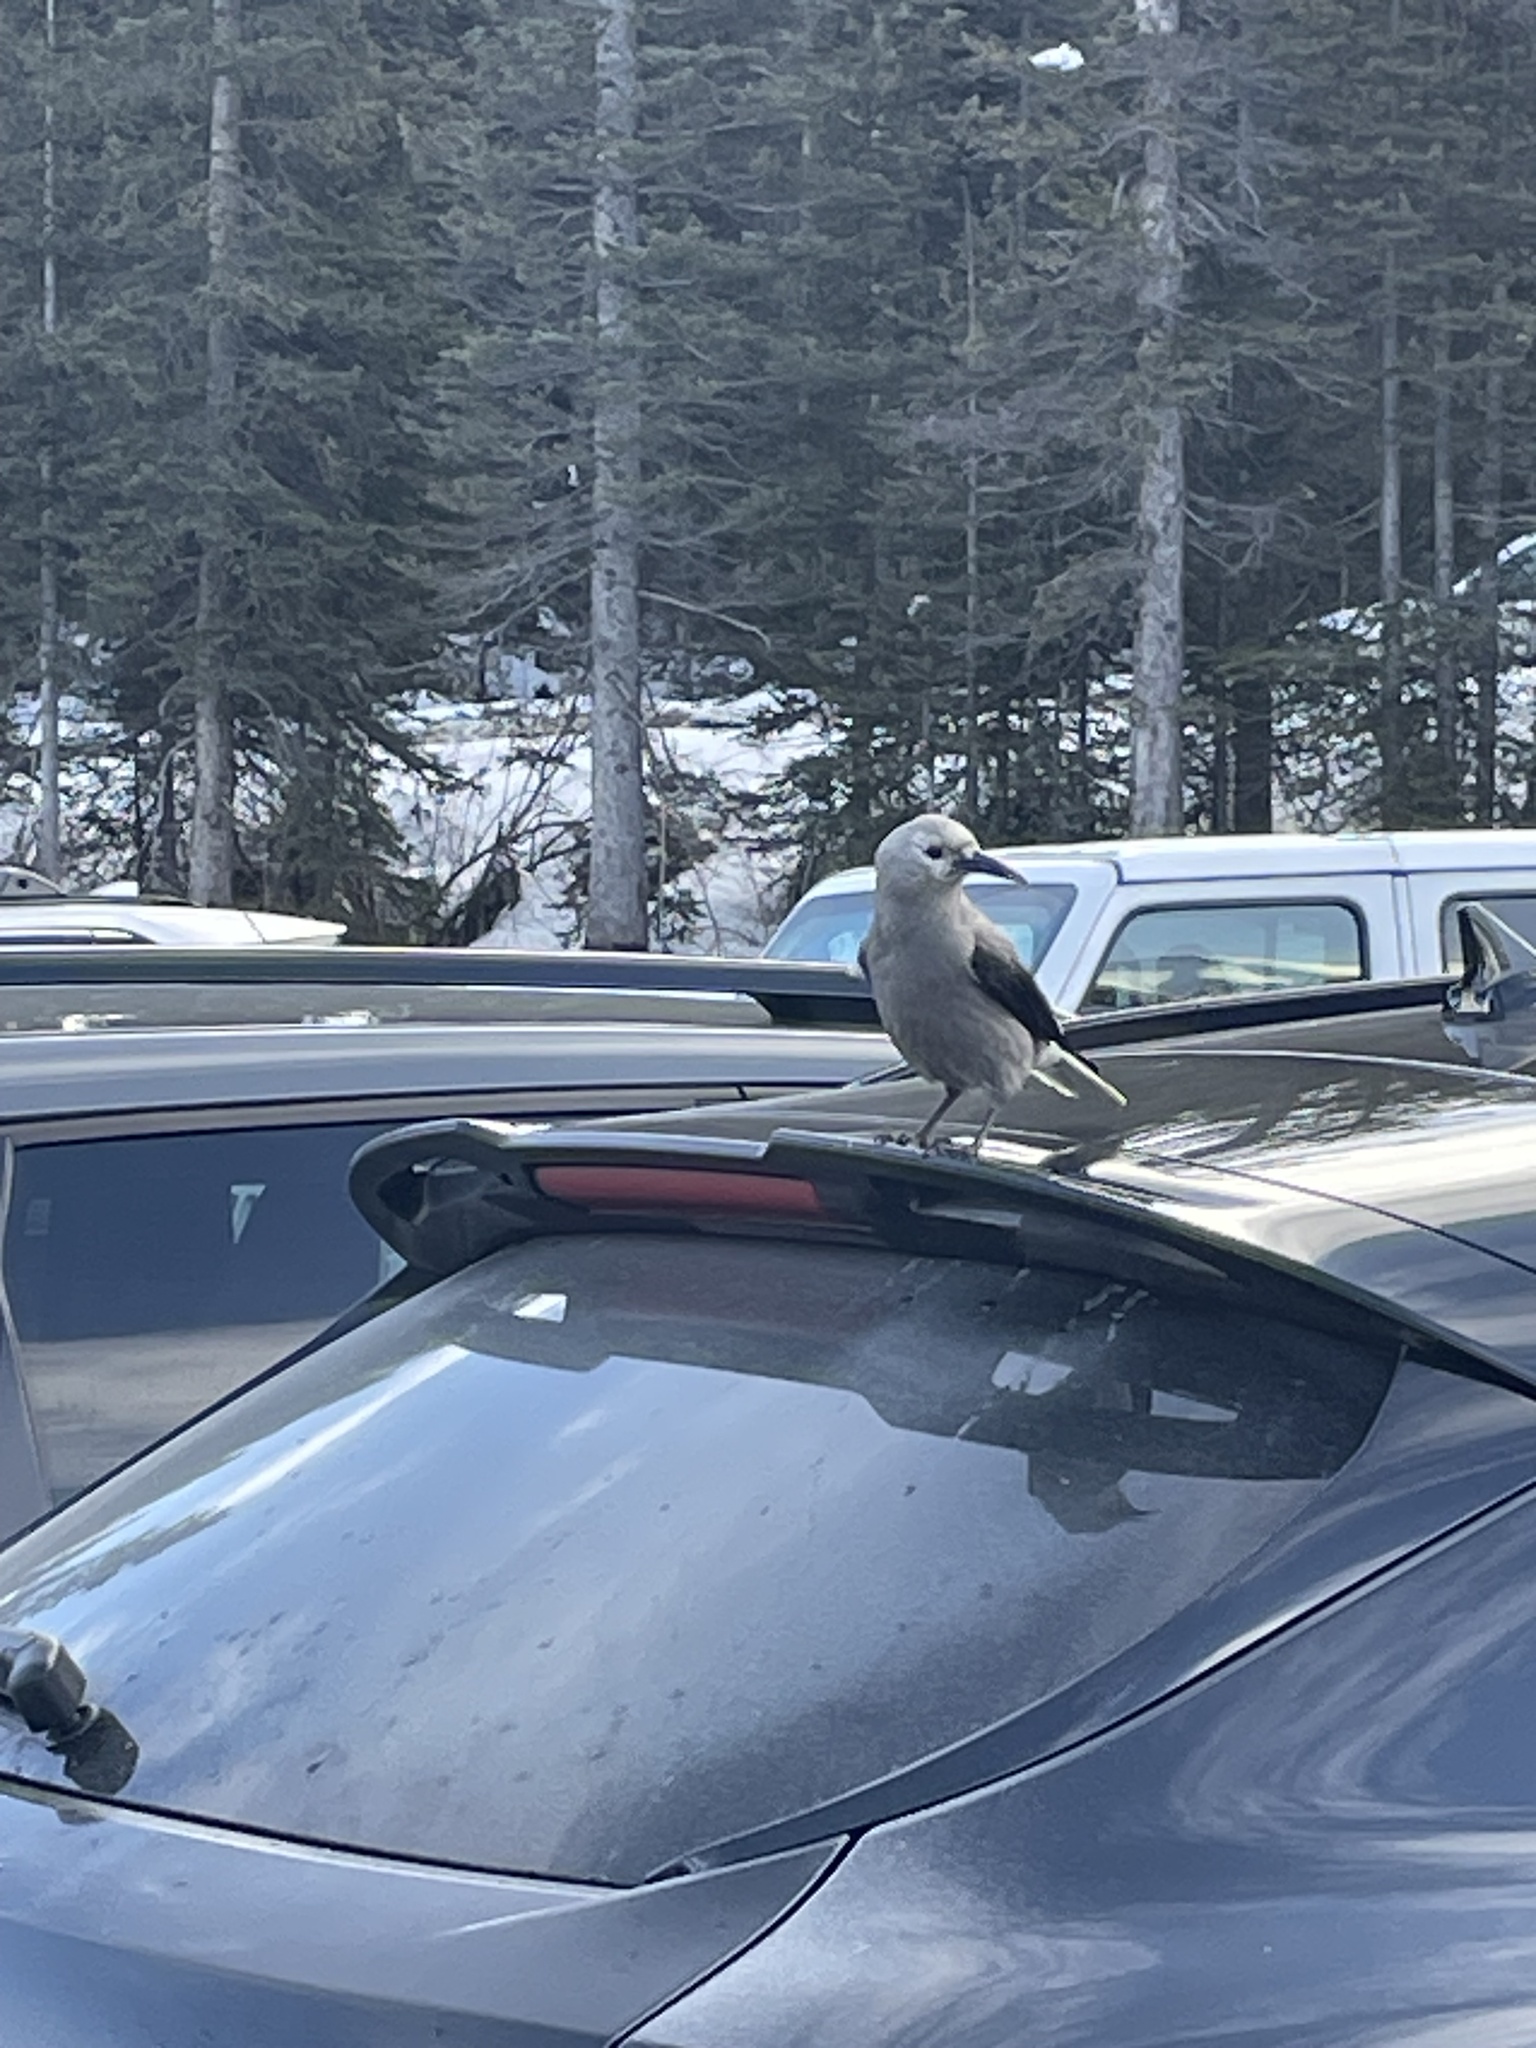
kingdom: Animalia
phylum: Chordata
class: Aves
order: Passeriformes
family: Corvidae
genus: Nucifraga
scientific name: Nucifraga columbiana
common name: Clark's nutcracker
